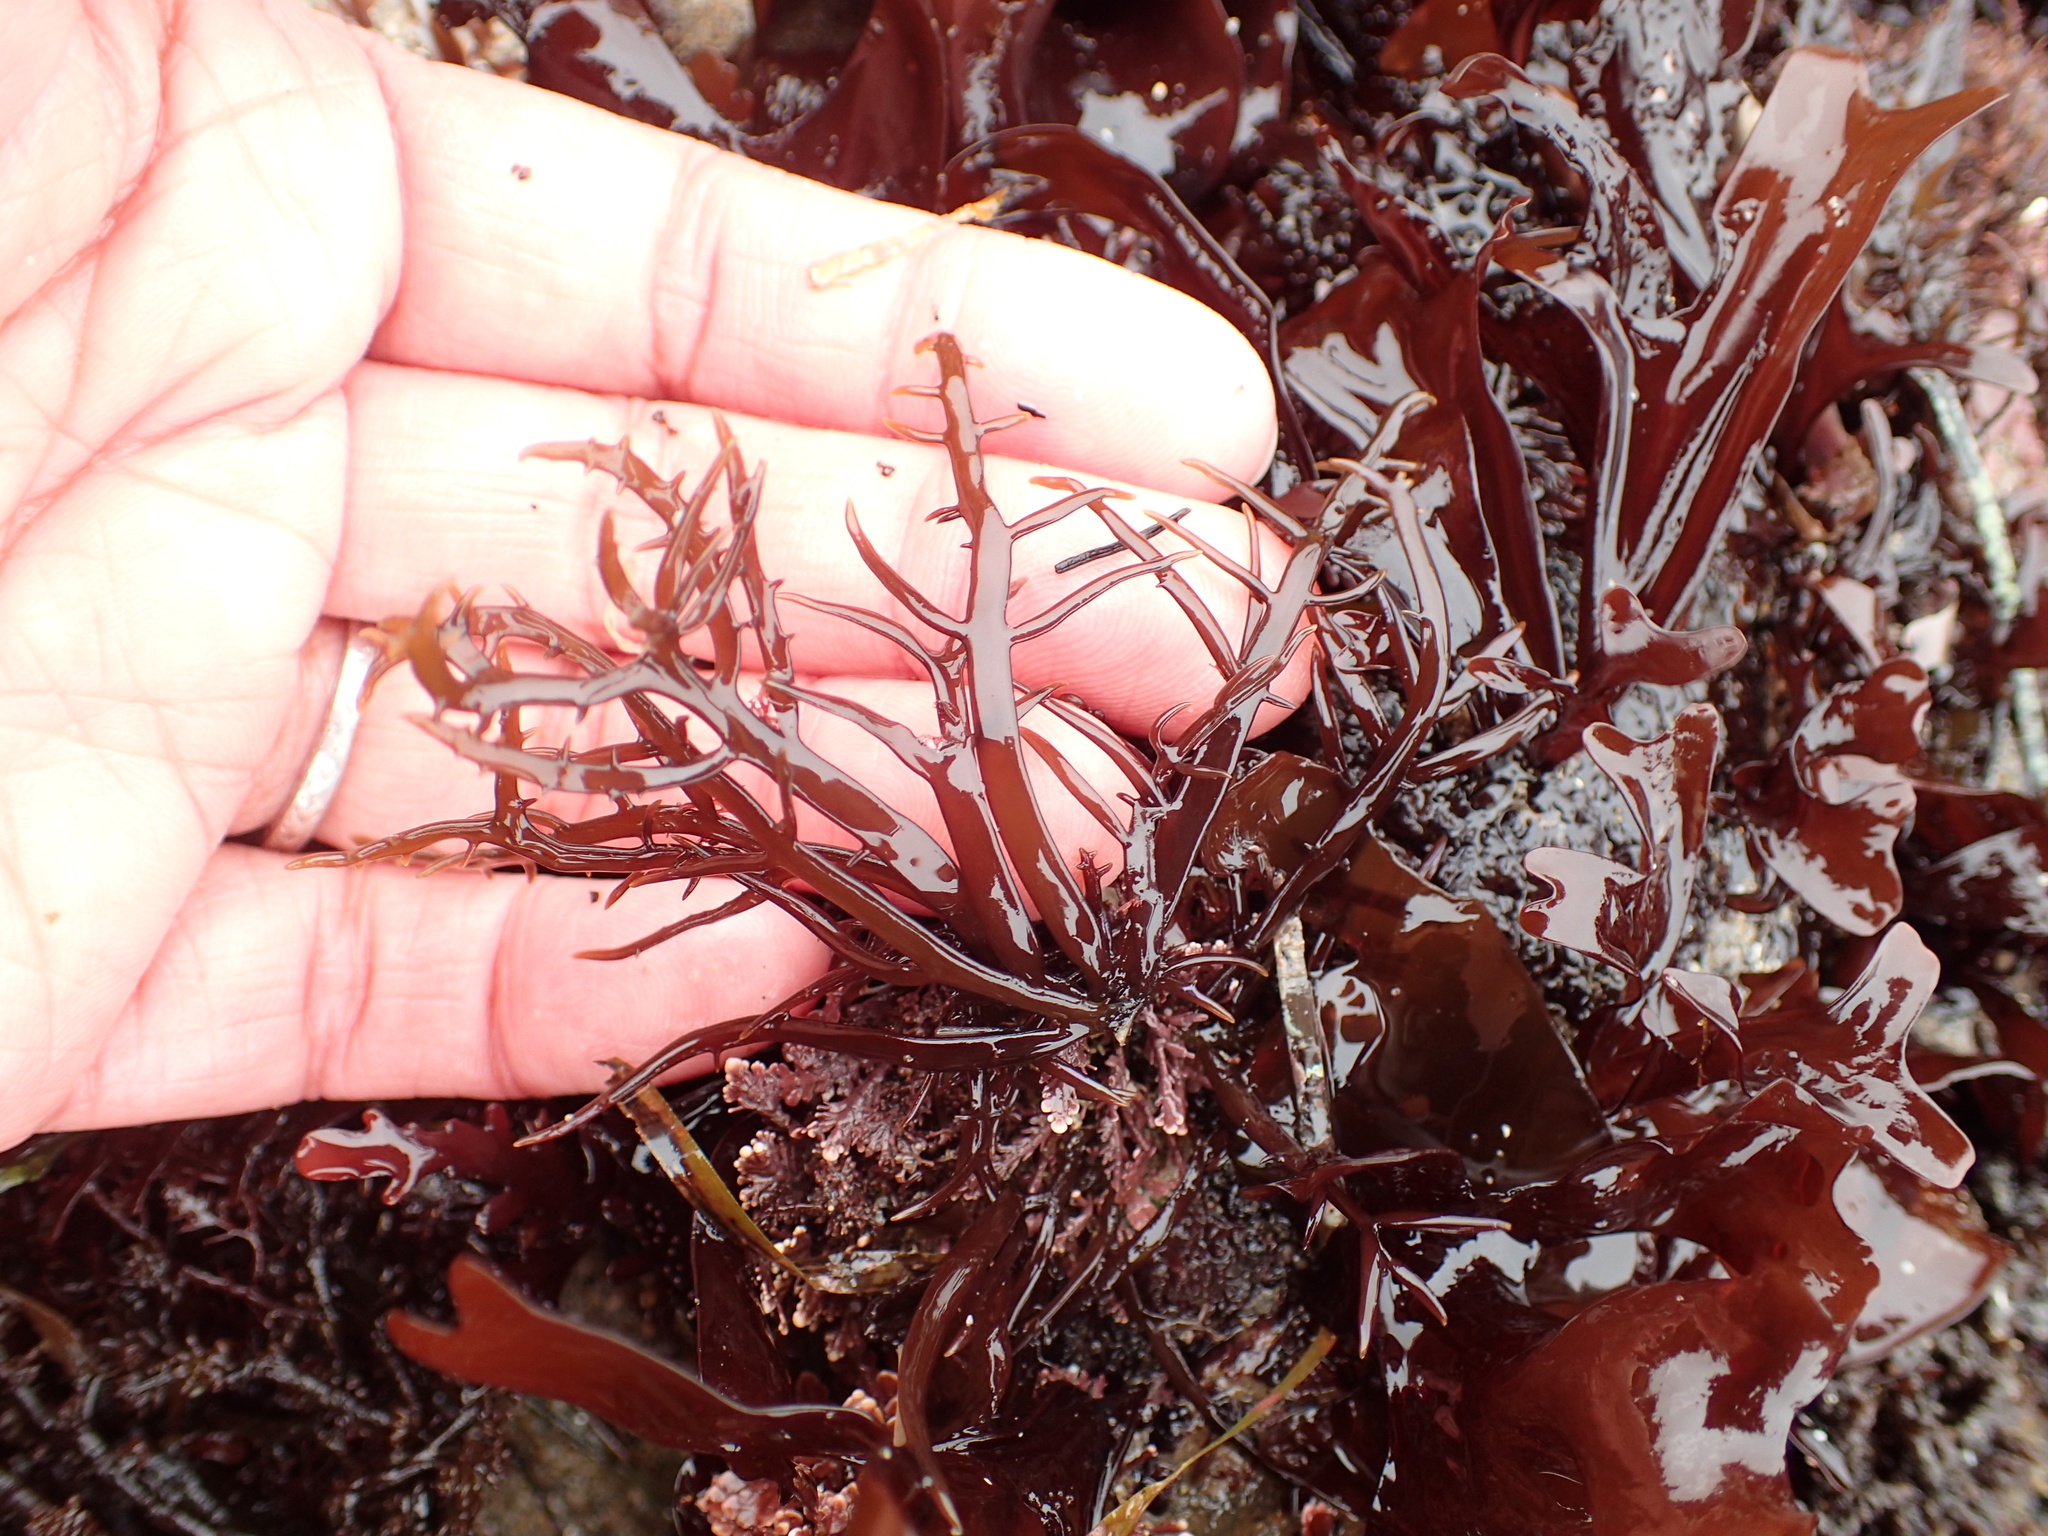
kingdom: Plantae
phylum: Rhodophyta
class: Florideophyceae
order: Gigartinales
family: Gigartinaceae
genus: Chondracanthus
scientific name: Chondracanthus canaliculatus
